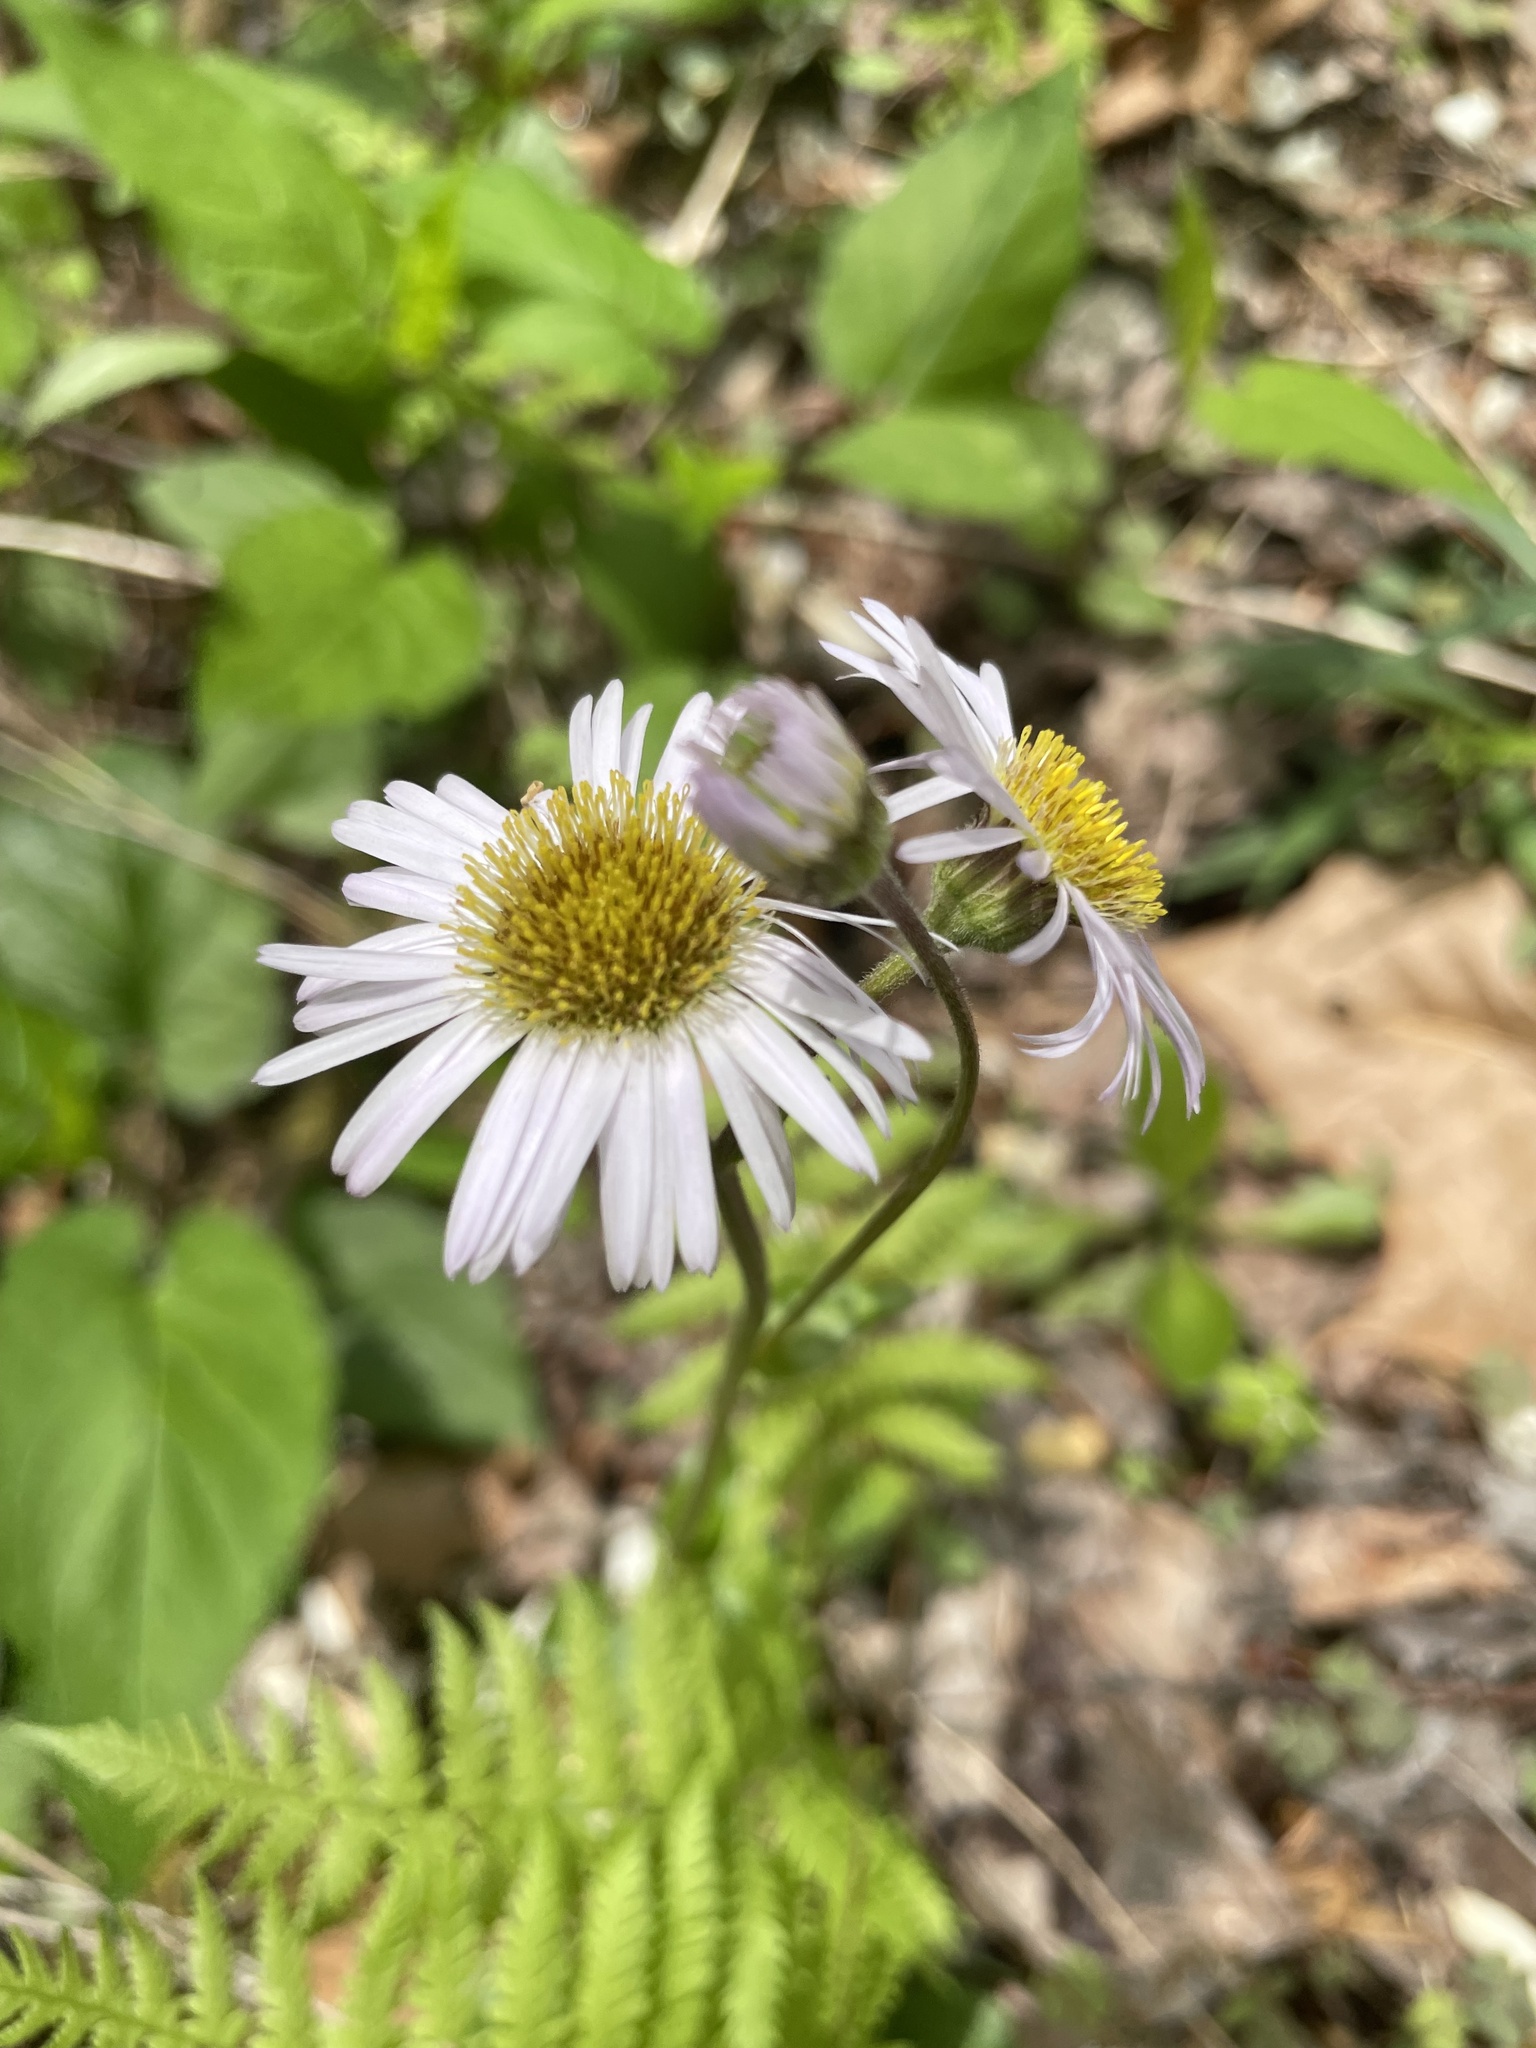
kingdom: Plantae
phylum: Tracheophyta
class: Magnoliopsida
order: Asterales
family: Asteraceae
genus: Erigeron
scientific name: Erigeron pulchellus
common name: Hairy fleabane
